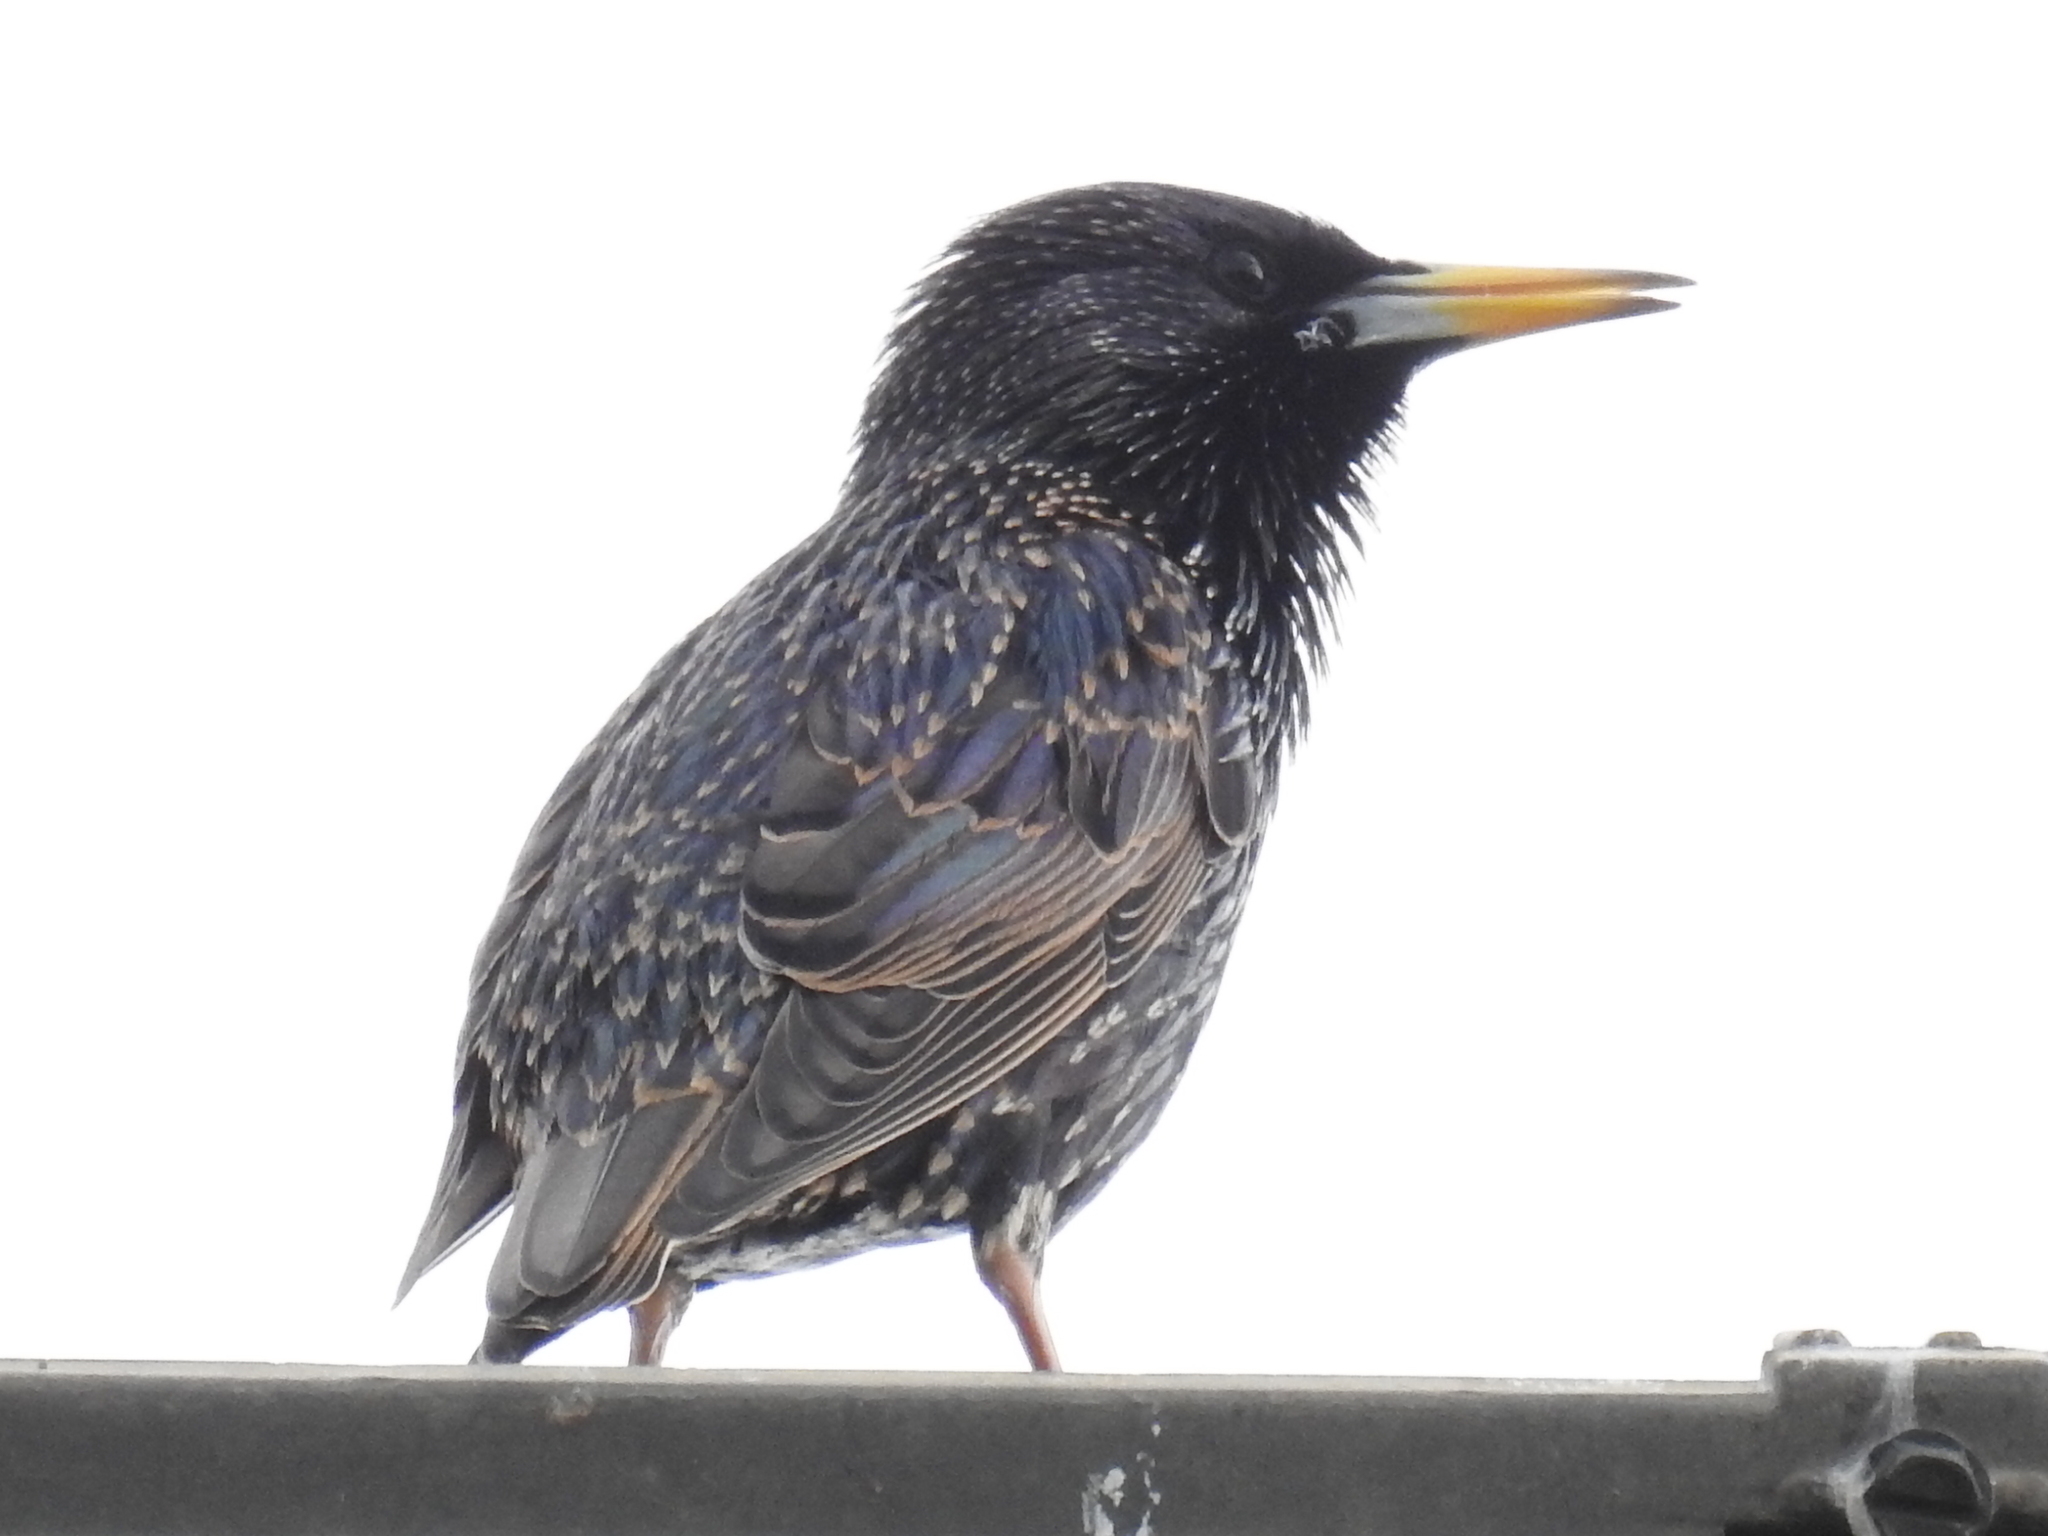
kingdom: Animalia
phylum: Chordata
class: Aves
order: Passeriformes
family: Sturnidae
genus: Sturnus
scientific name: Sturnus vulgaris
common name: Common starling
